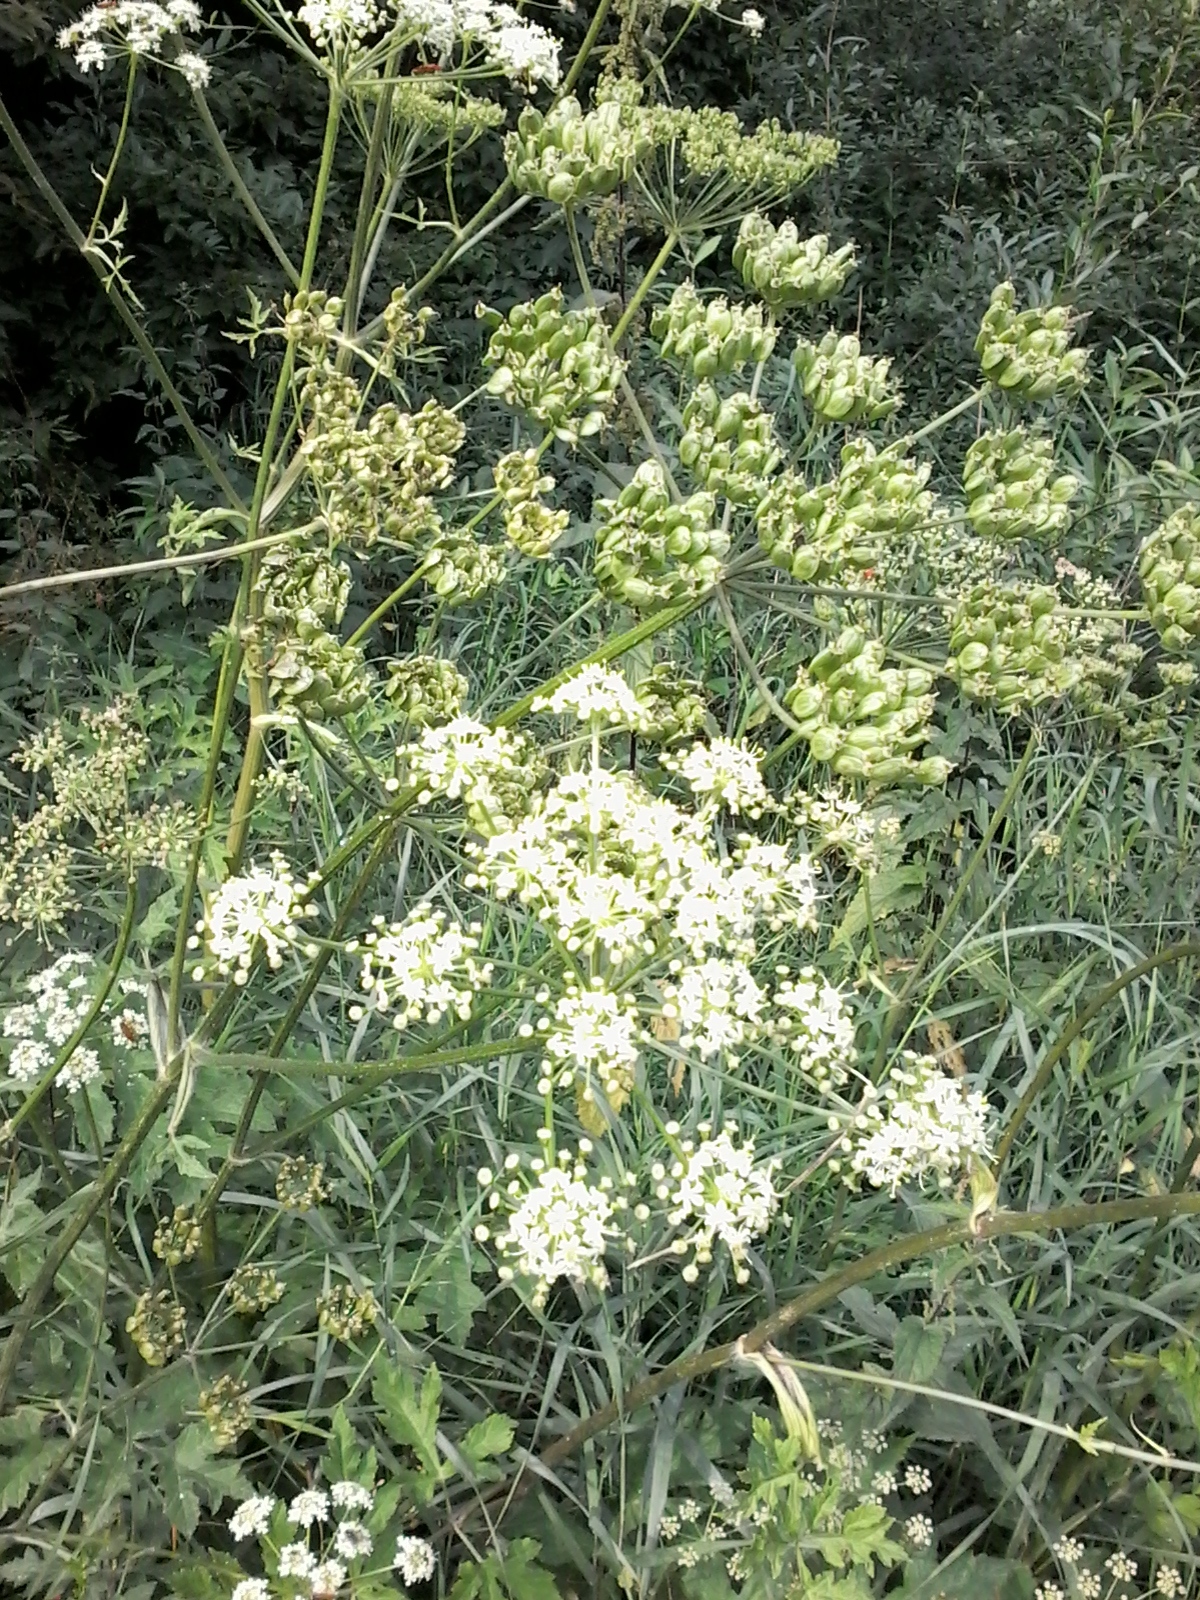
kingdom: Plantae
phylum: Tracheophyta
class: Magnoliopsida
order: Apiales
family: Apiaceae
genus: Heracleum
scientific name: Heracleum sphondylium
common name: Hogweed
